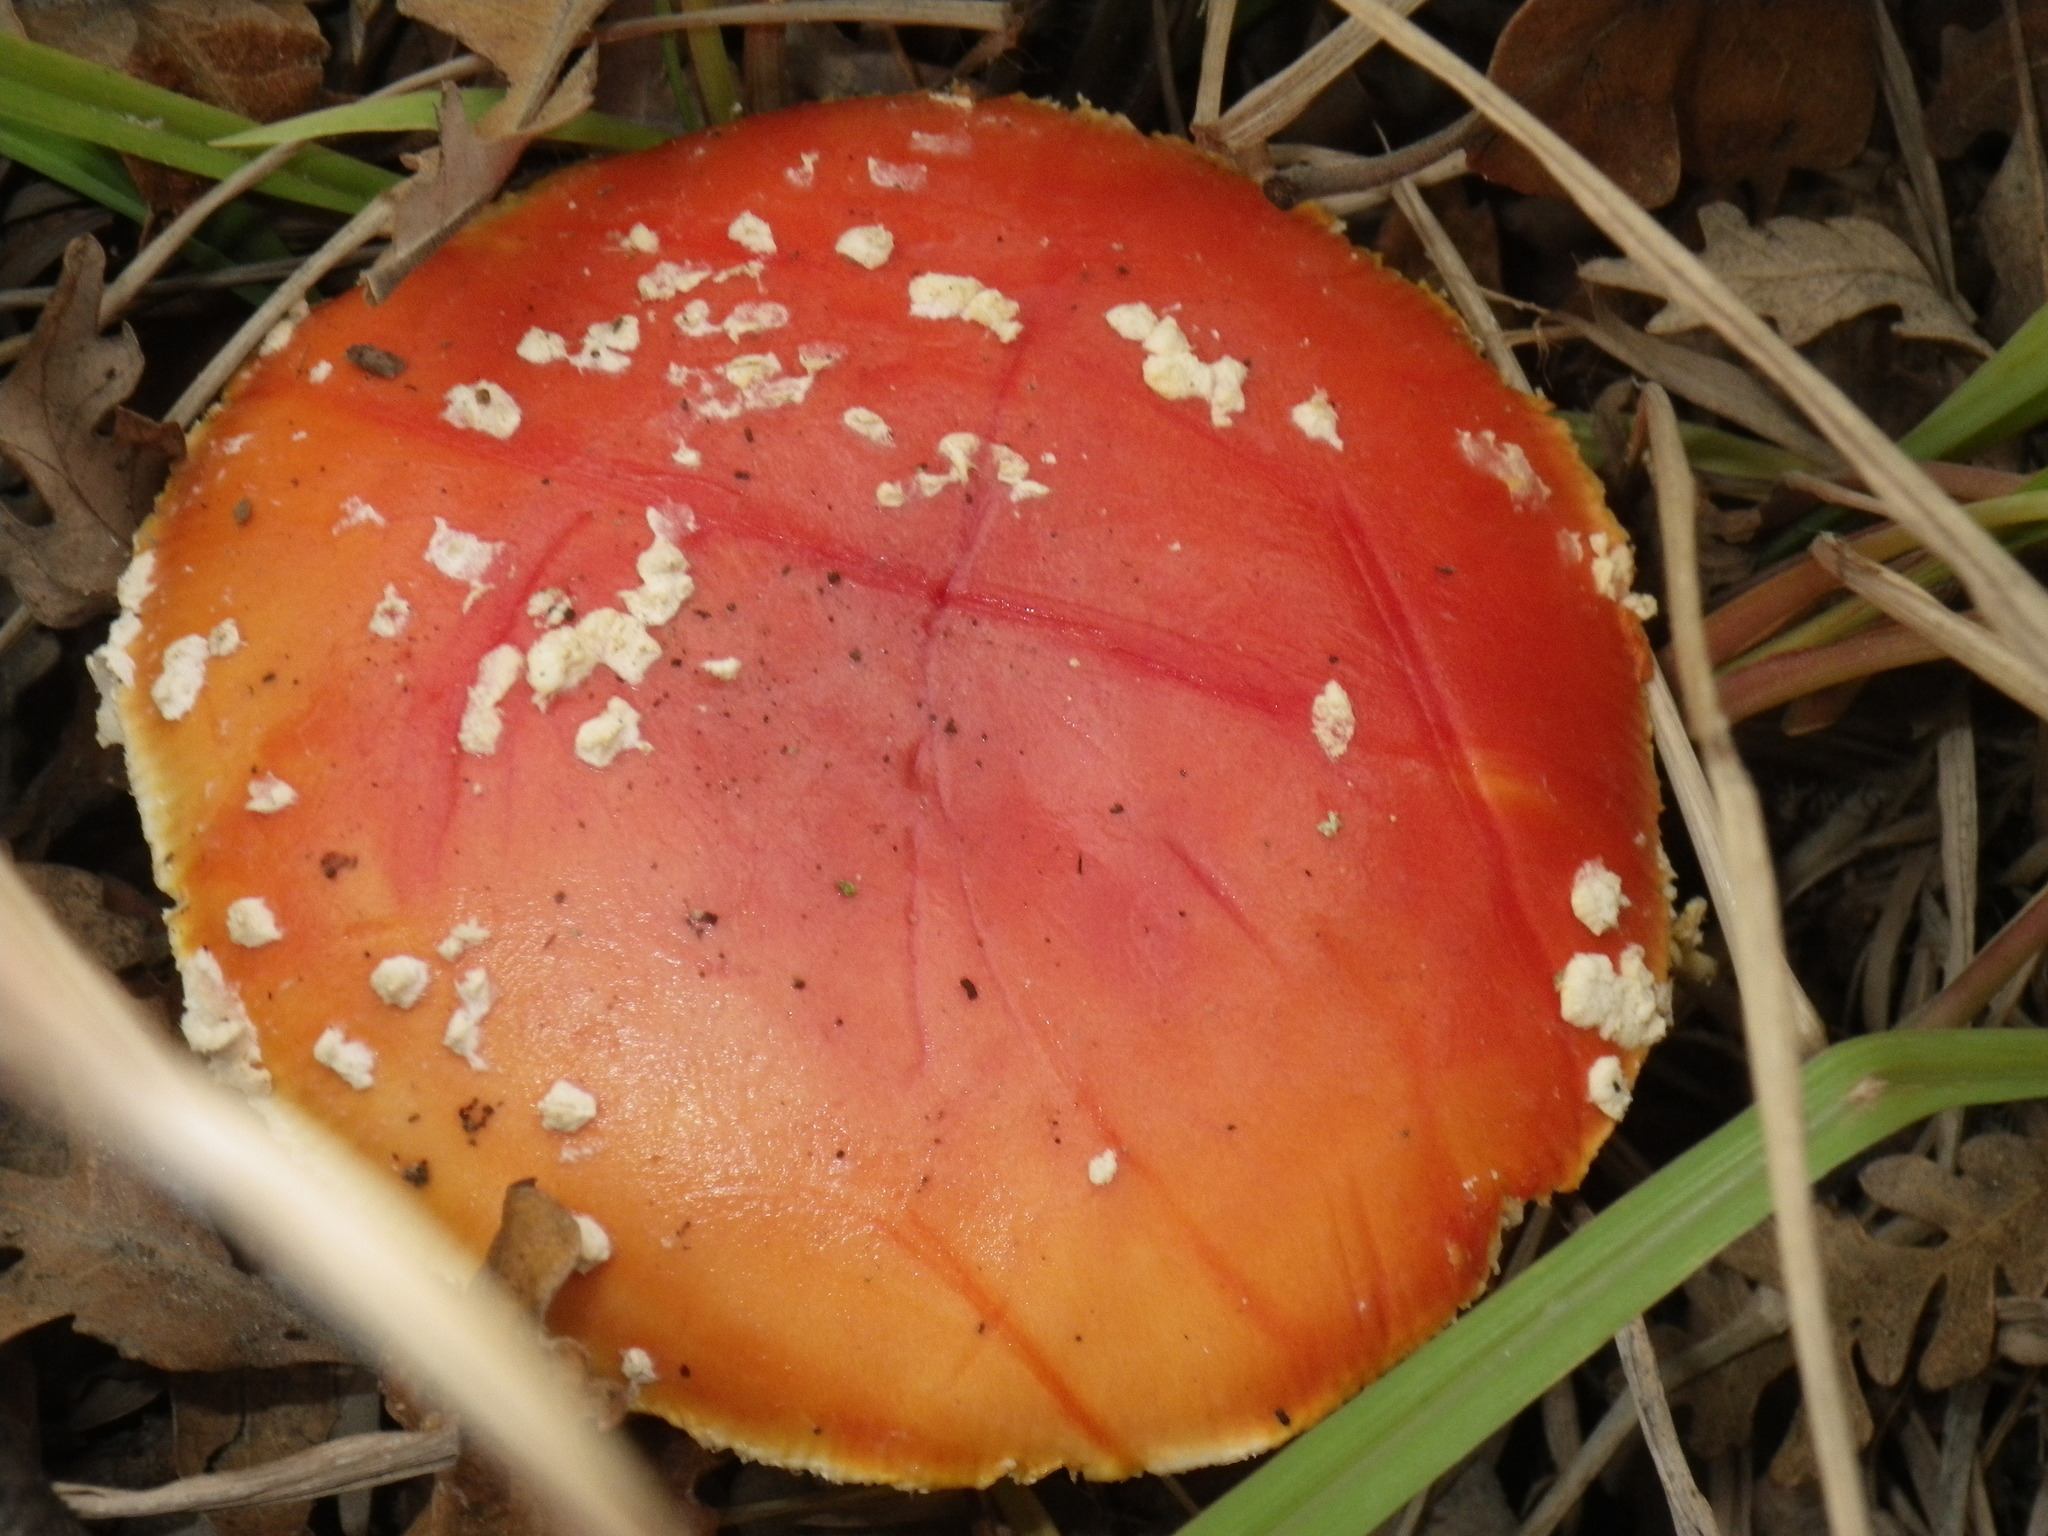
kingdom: Fungi
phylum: Basidiomycota
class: Agaricomycetes
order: Agaricales
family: Amanitaceae
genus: Amanita
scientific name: Amanita muscaria
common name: Fly agaric
